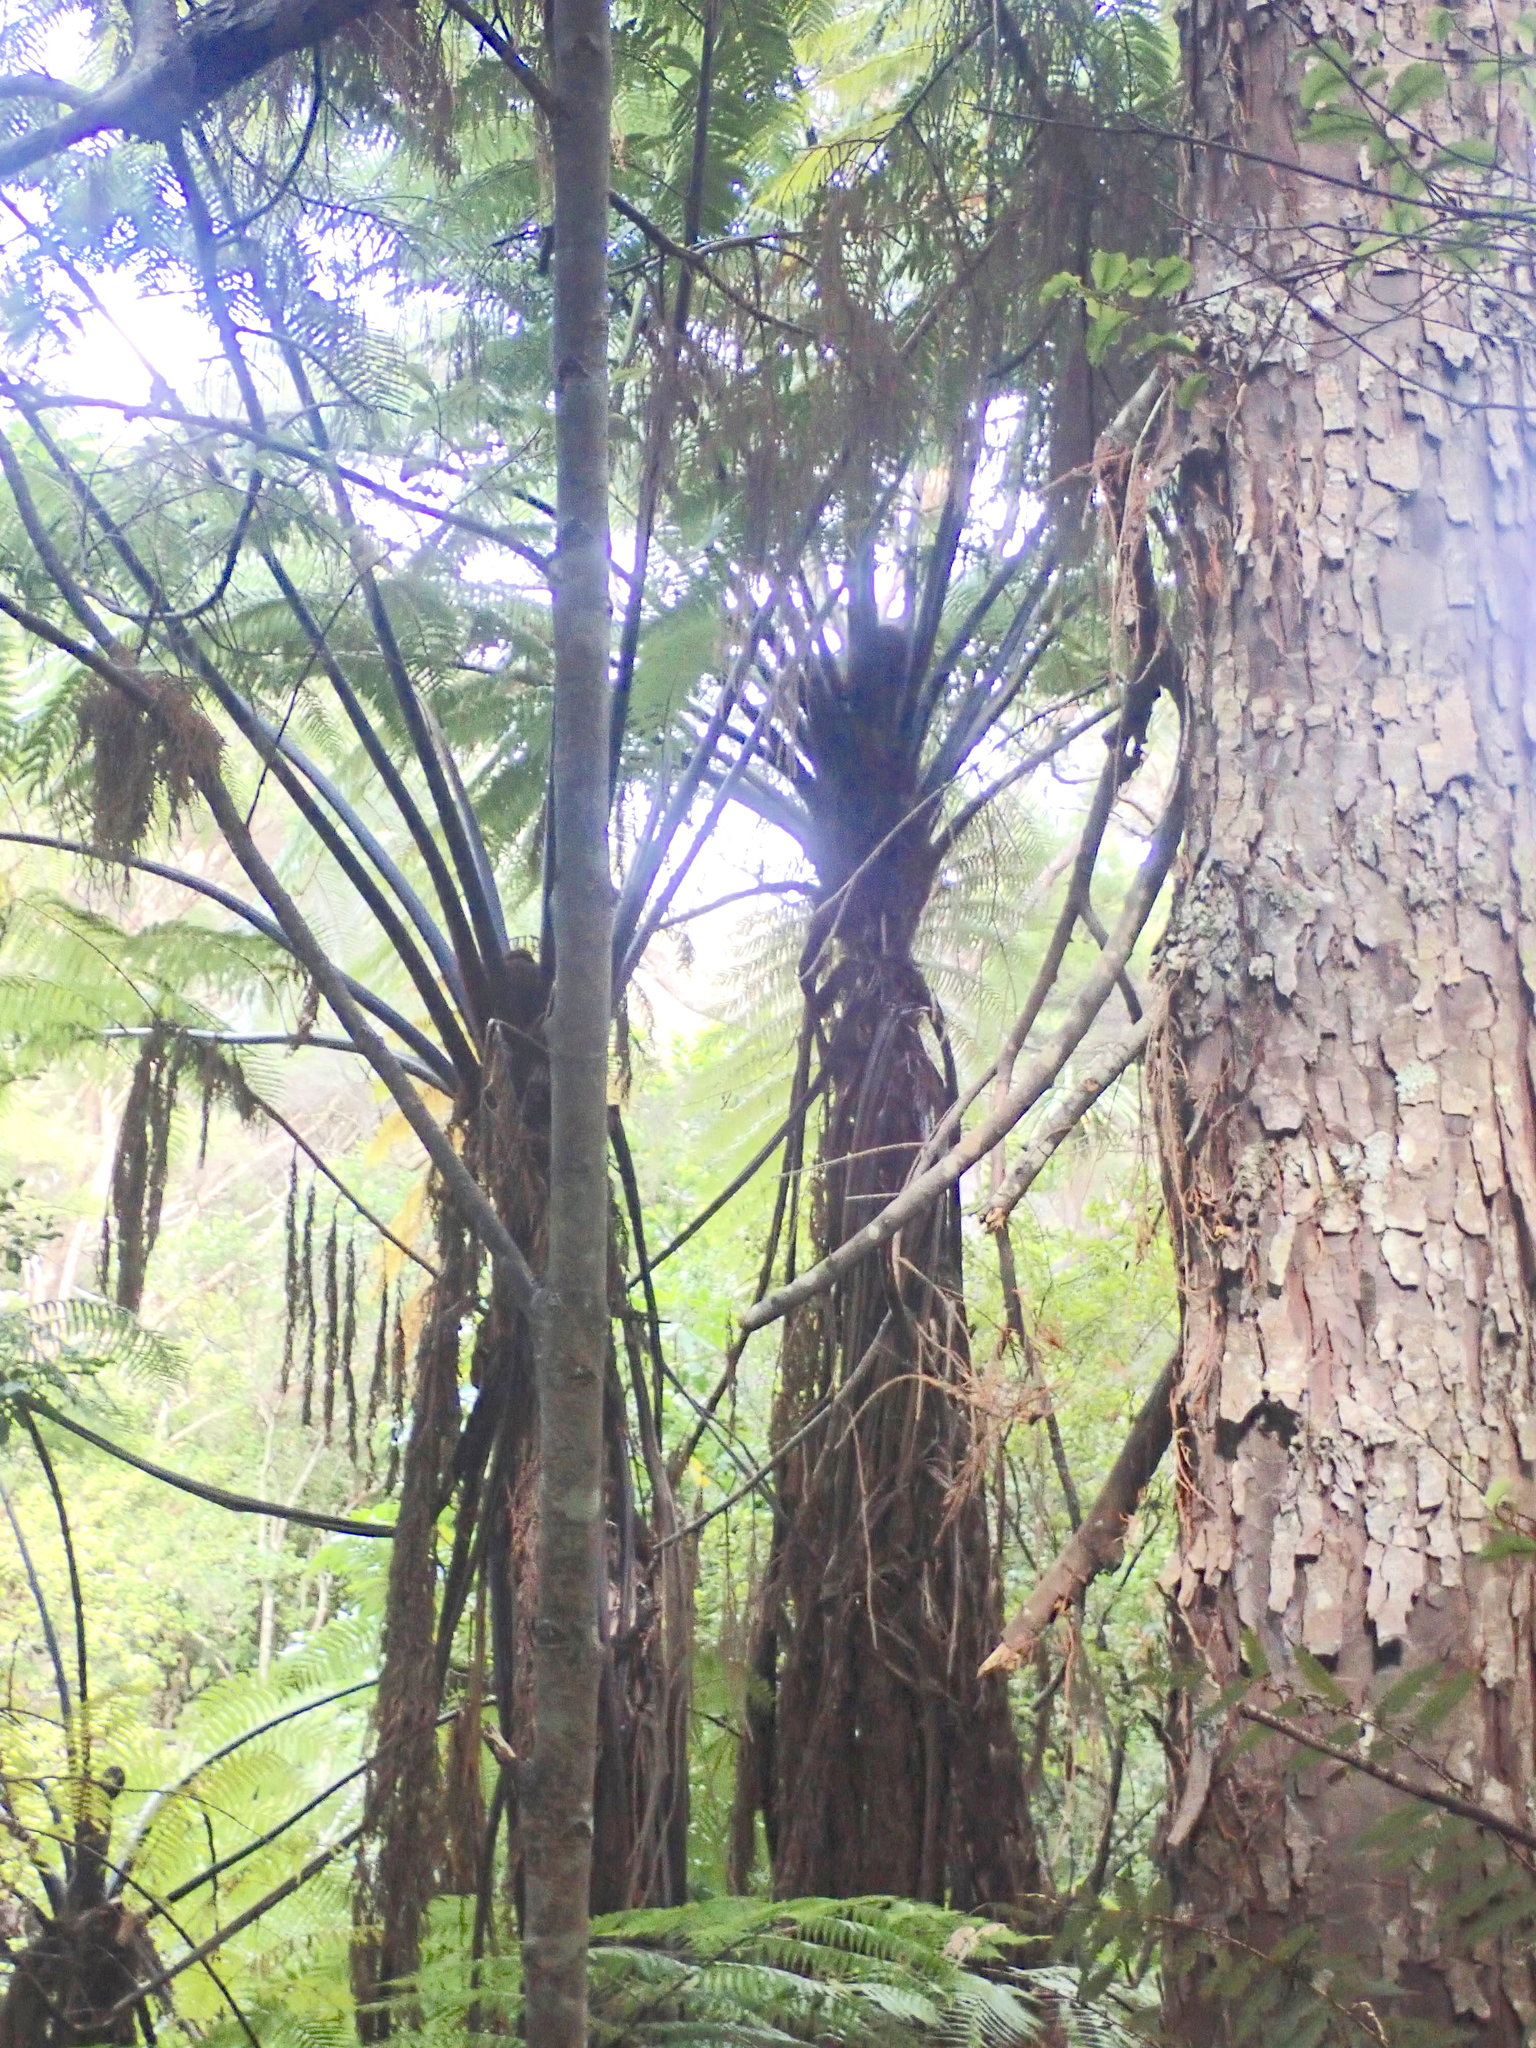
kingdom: Plantae
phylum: Tracheophyta
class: Polypodiopsida
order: Cyatheales
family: Cyatheaceae
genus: Sphaeropteris
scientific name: Sphaeropteris medullaris
